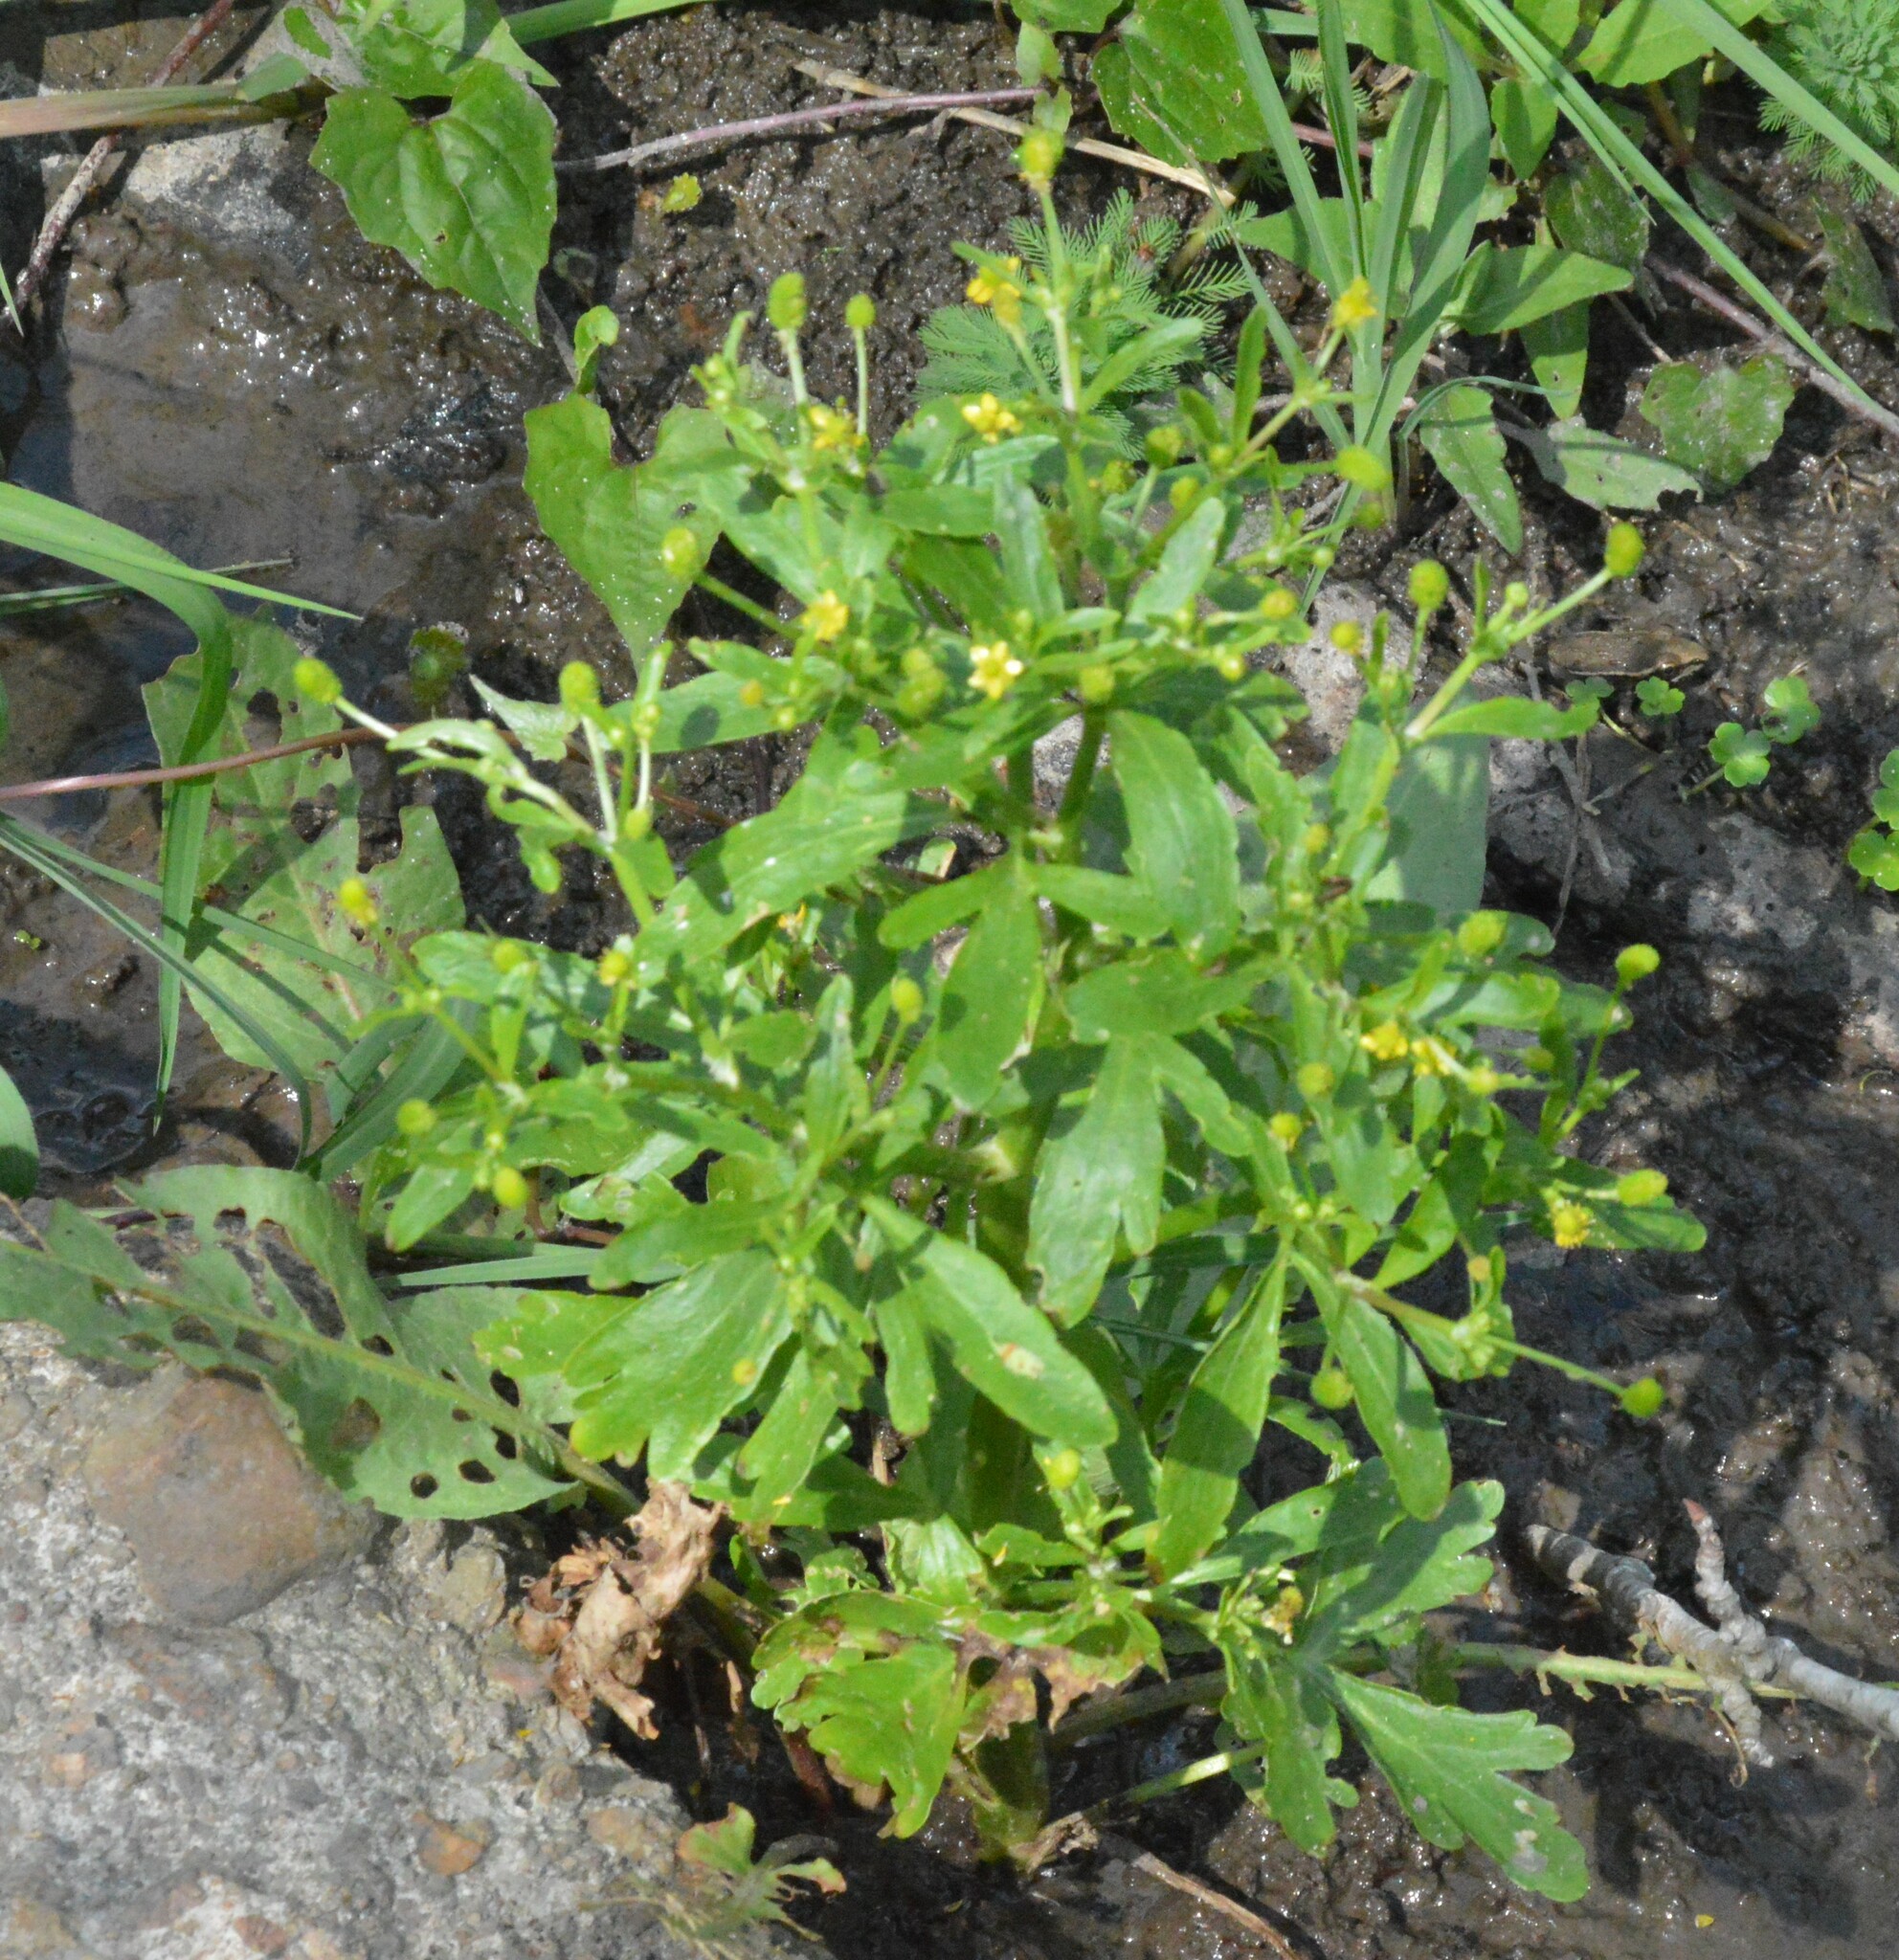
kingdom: Plantae
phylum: Tracheophyta
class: Magnoliopsida
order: Ranunculales
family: Ranunculaceae
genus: Ranunculus
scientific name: Ranunculus sceleratus
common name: Celery-leaved buttercup
